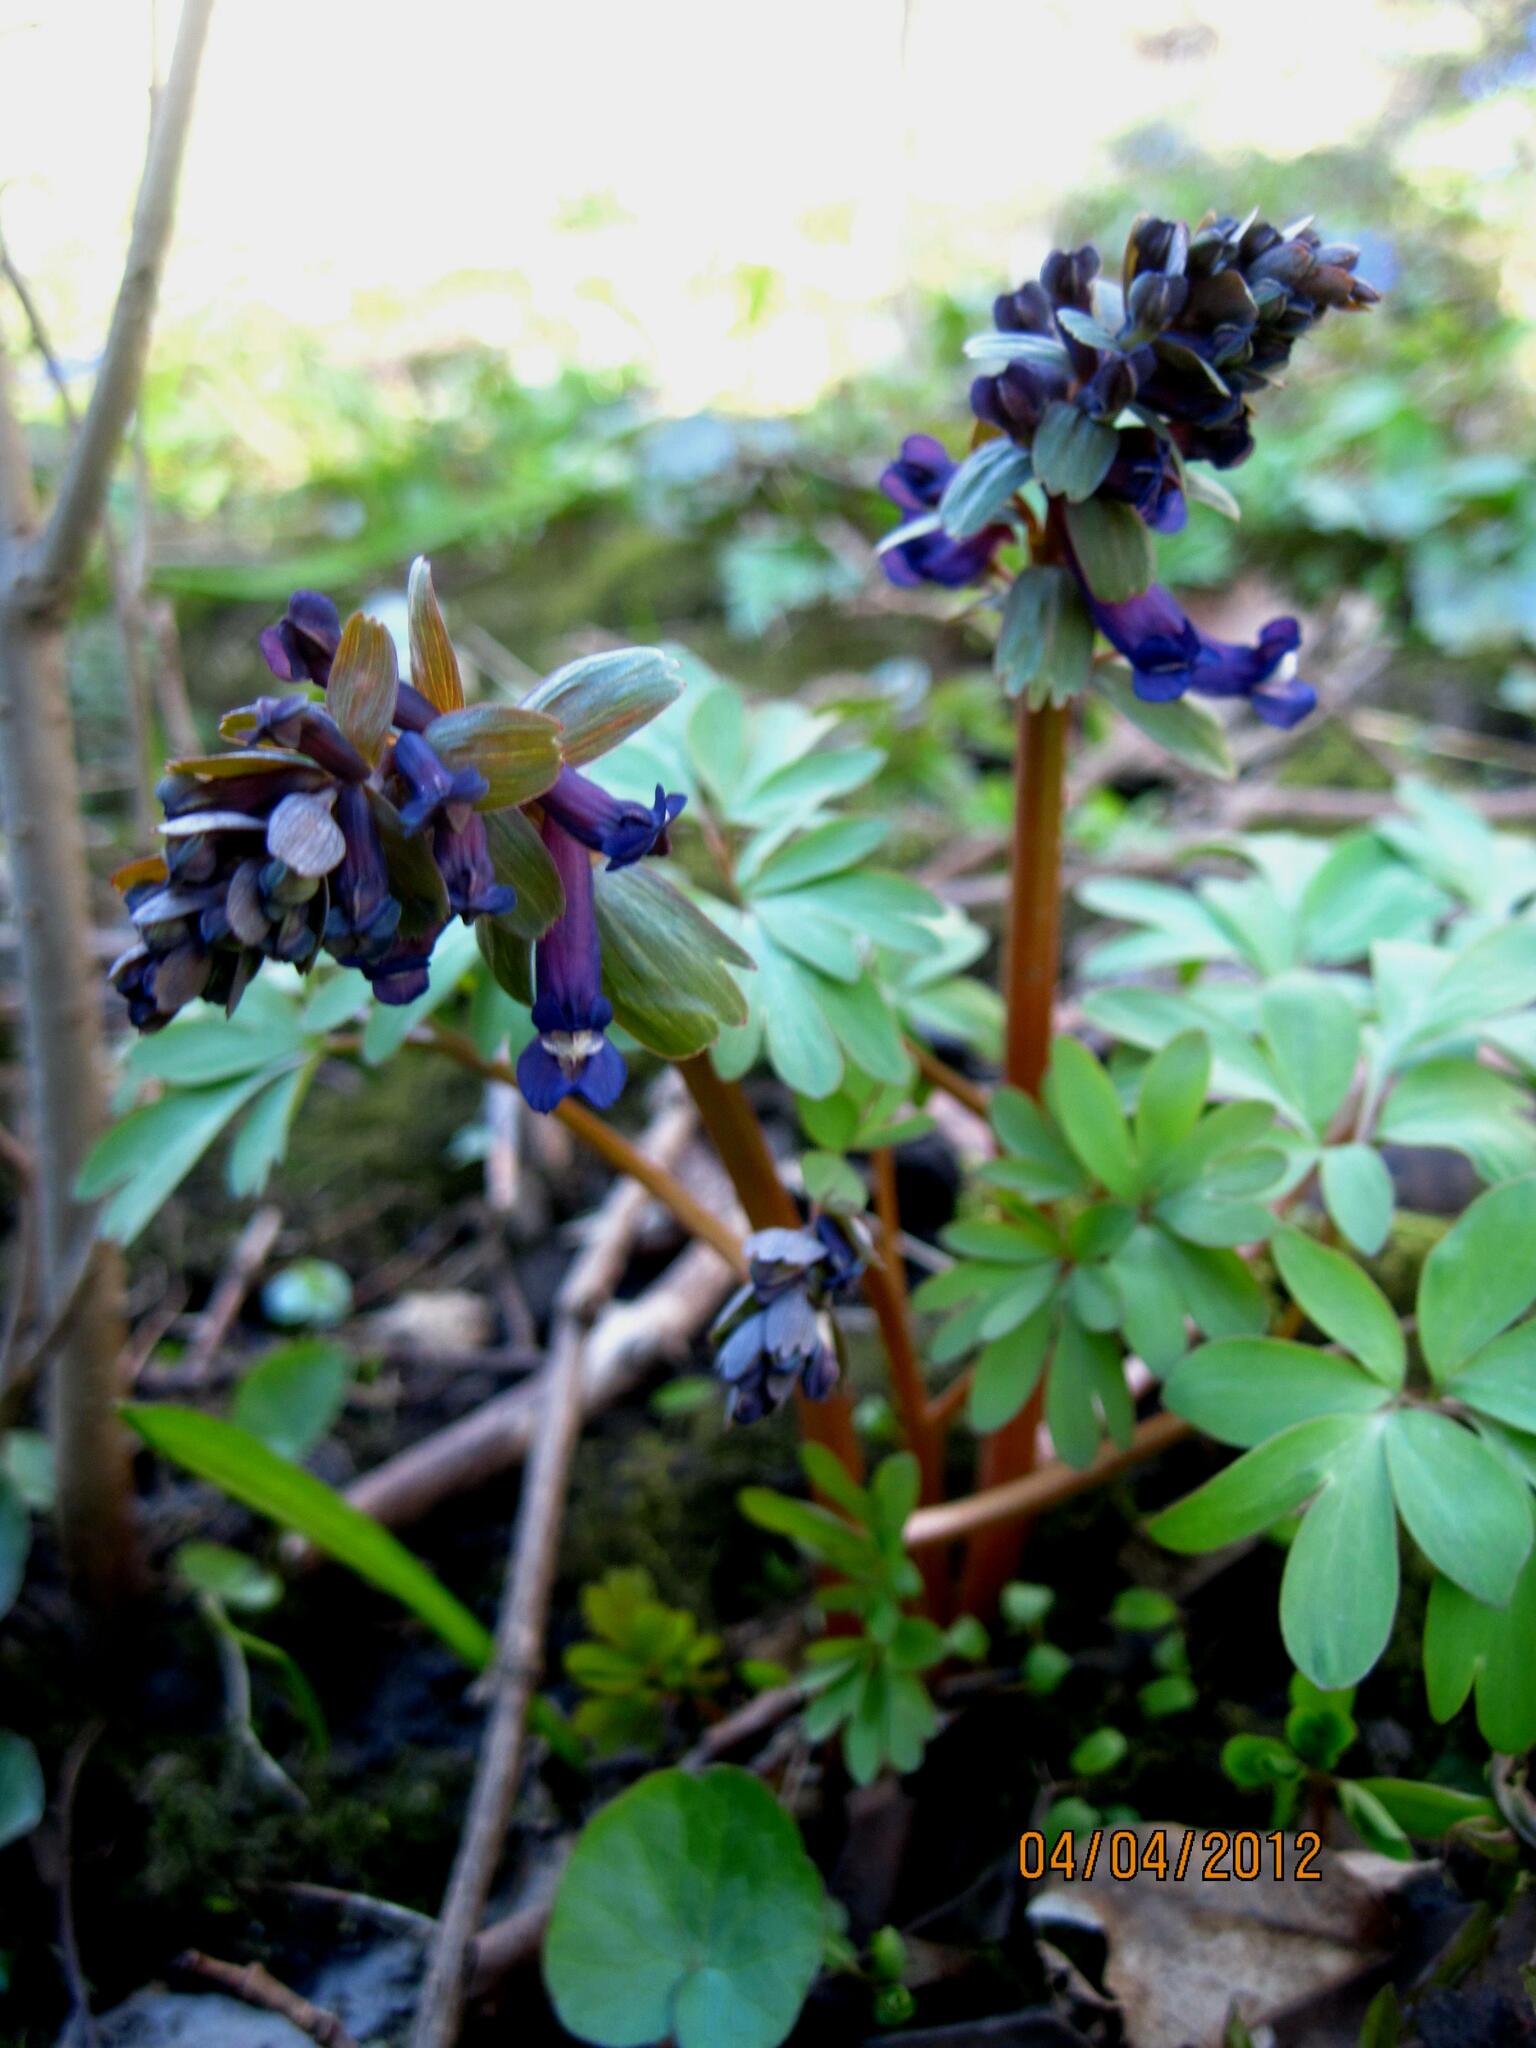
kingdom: Plantae
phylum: Tracheophyta
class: Magnoliopsida
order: Ranunculales
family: Papaveraceae
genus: Corydalis
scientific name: Corydalis solida
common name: Bird-in-a-bush
